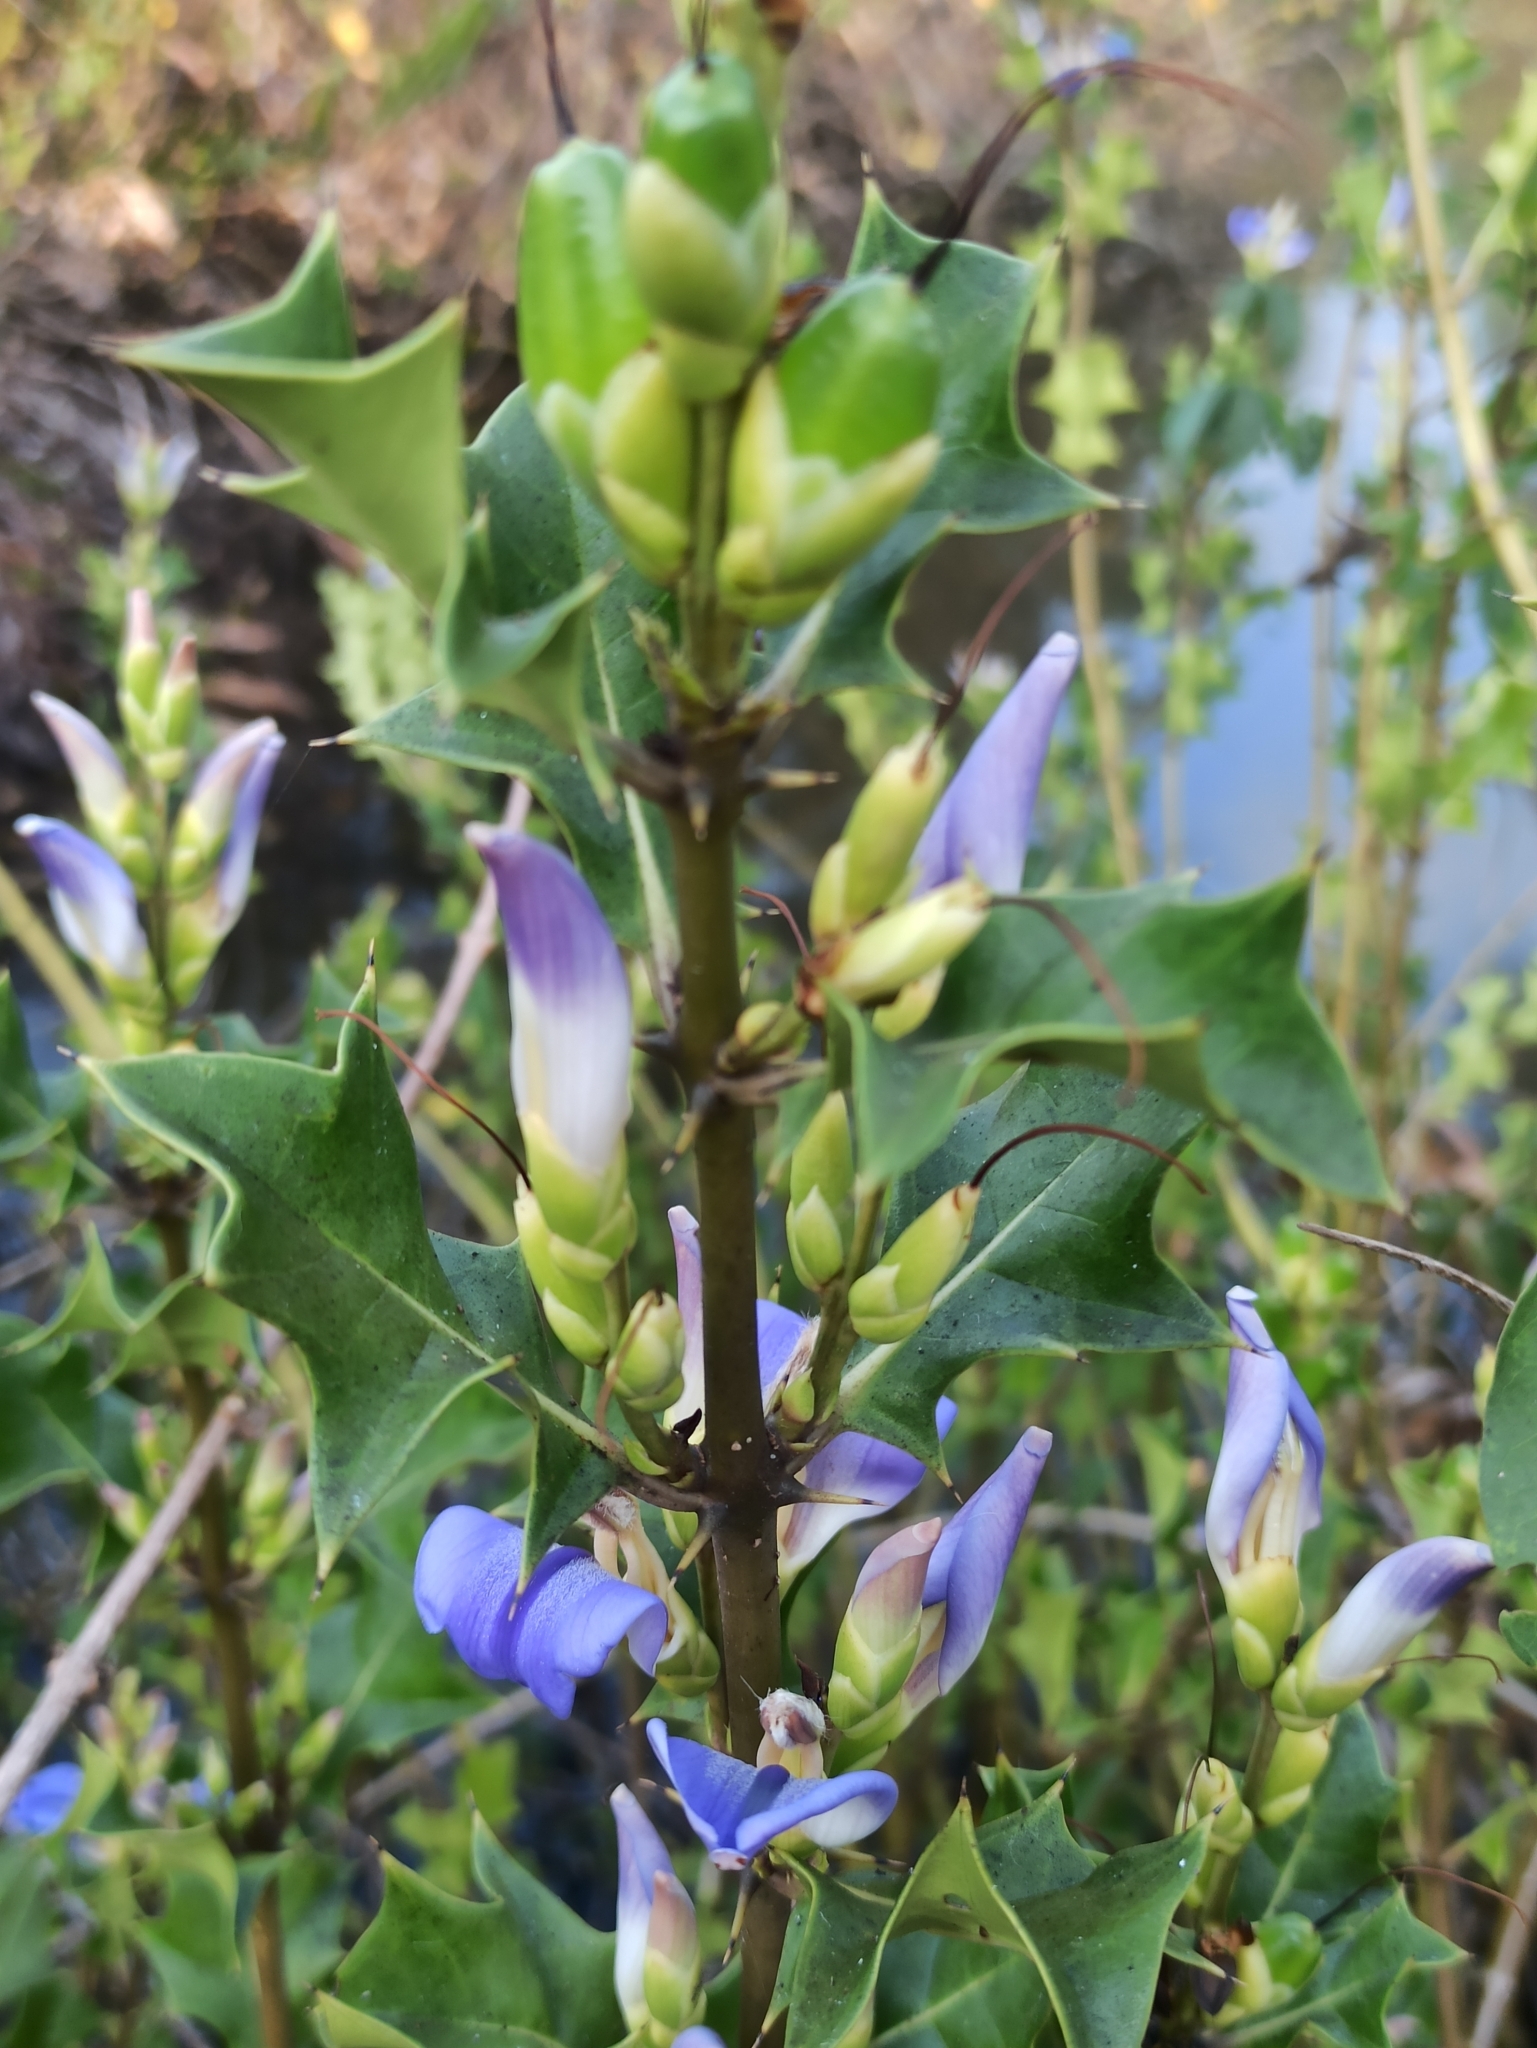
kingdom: Plantae
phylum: Tracheophyta
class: Magnoliopsida
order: Lamiales
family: Acanthaceae
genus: Acanthus
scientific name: Acanthus ilicifolius
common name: Holy mangrove
